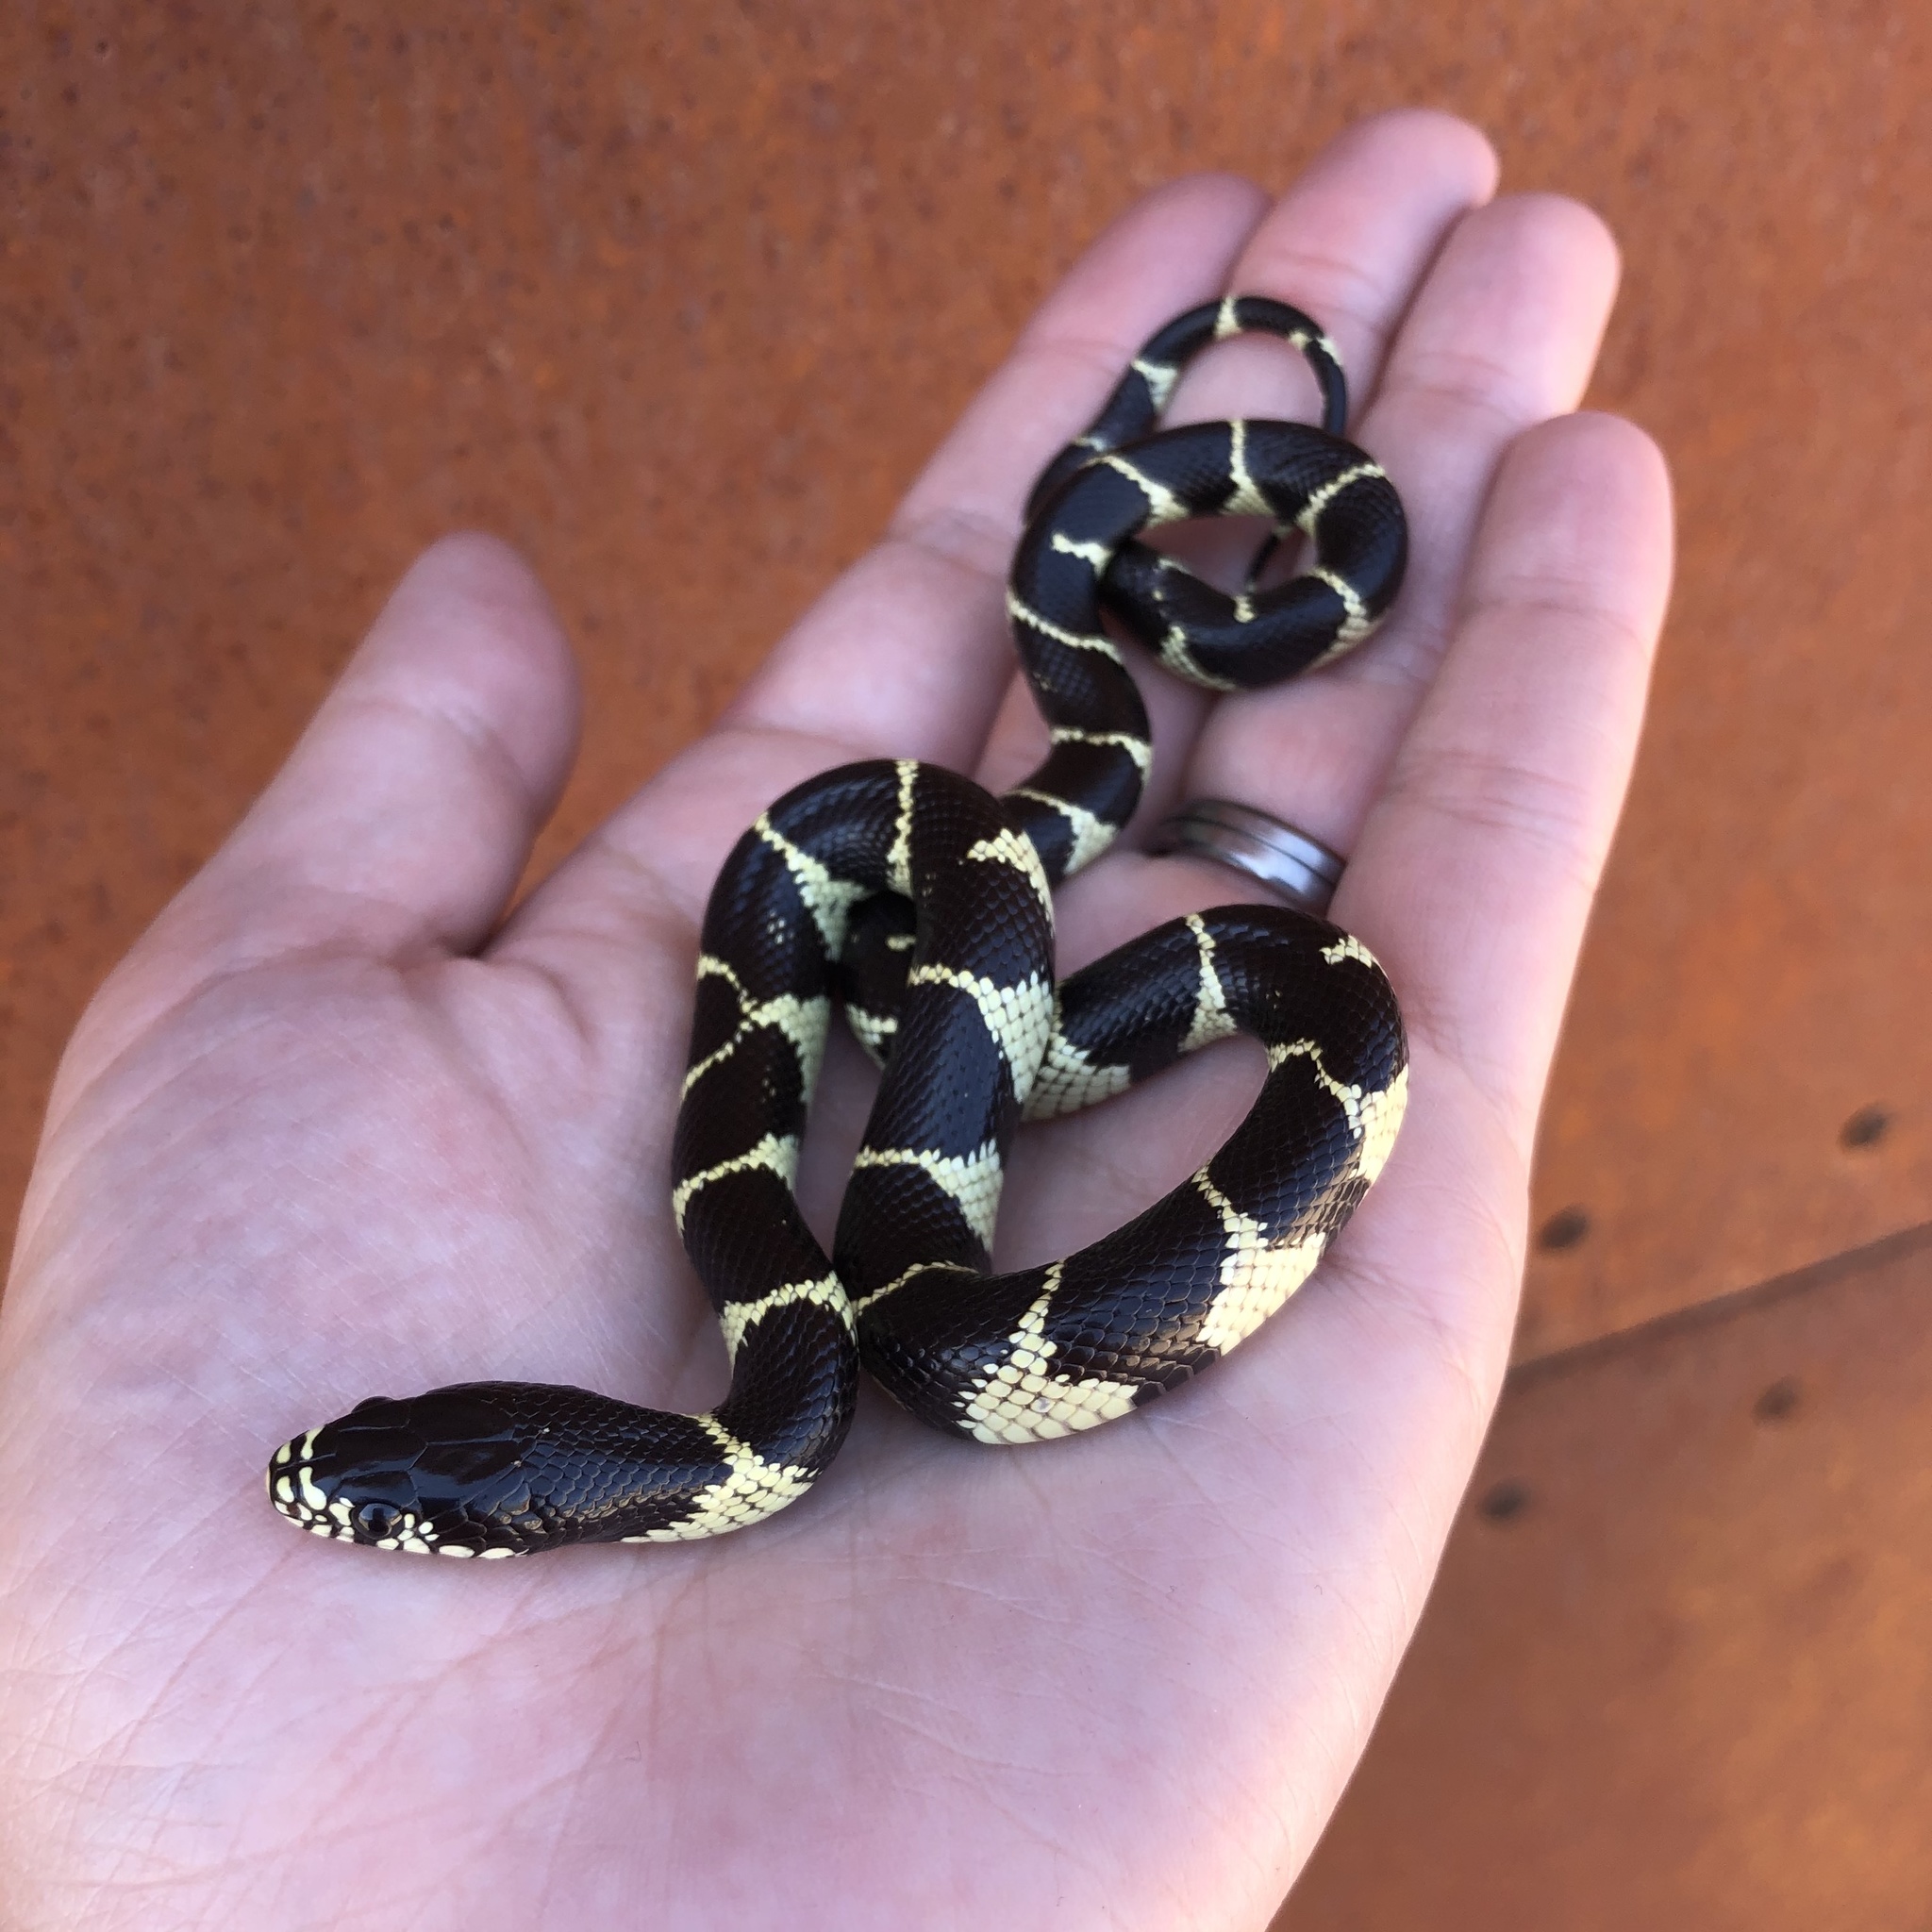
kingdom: Animalia
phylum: Chordata
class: Squamata
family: Colubridae
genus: Lampropeltis
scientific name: Lampropeltis californiae
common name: California kingsnake
